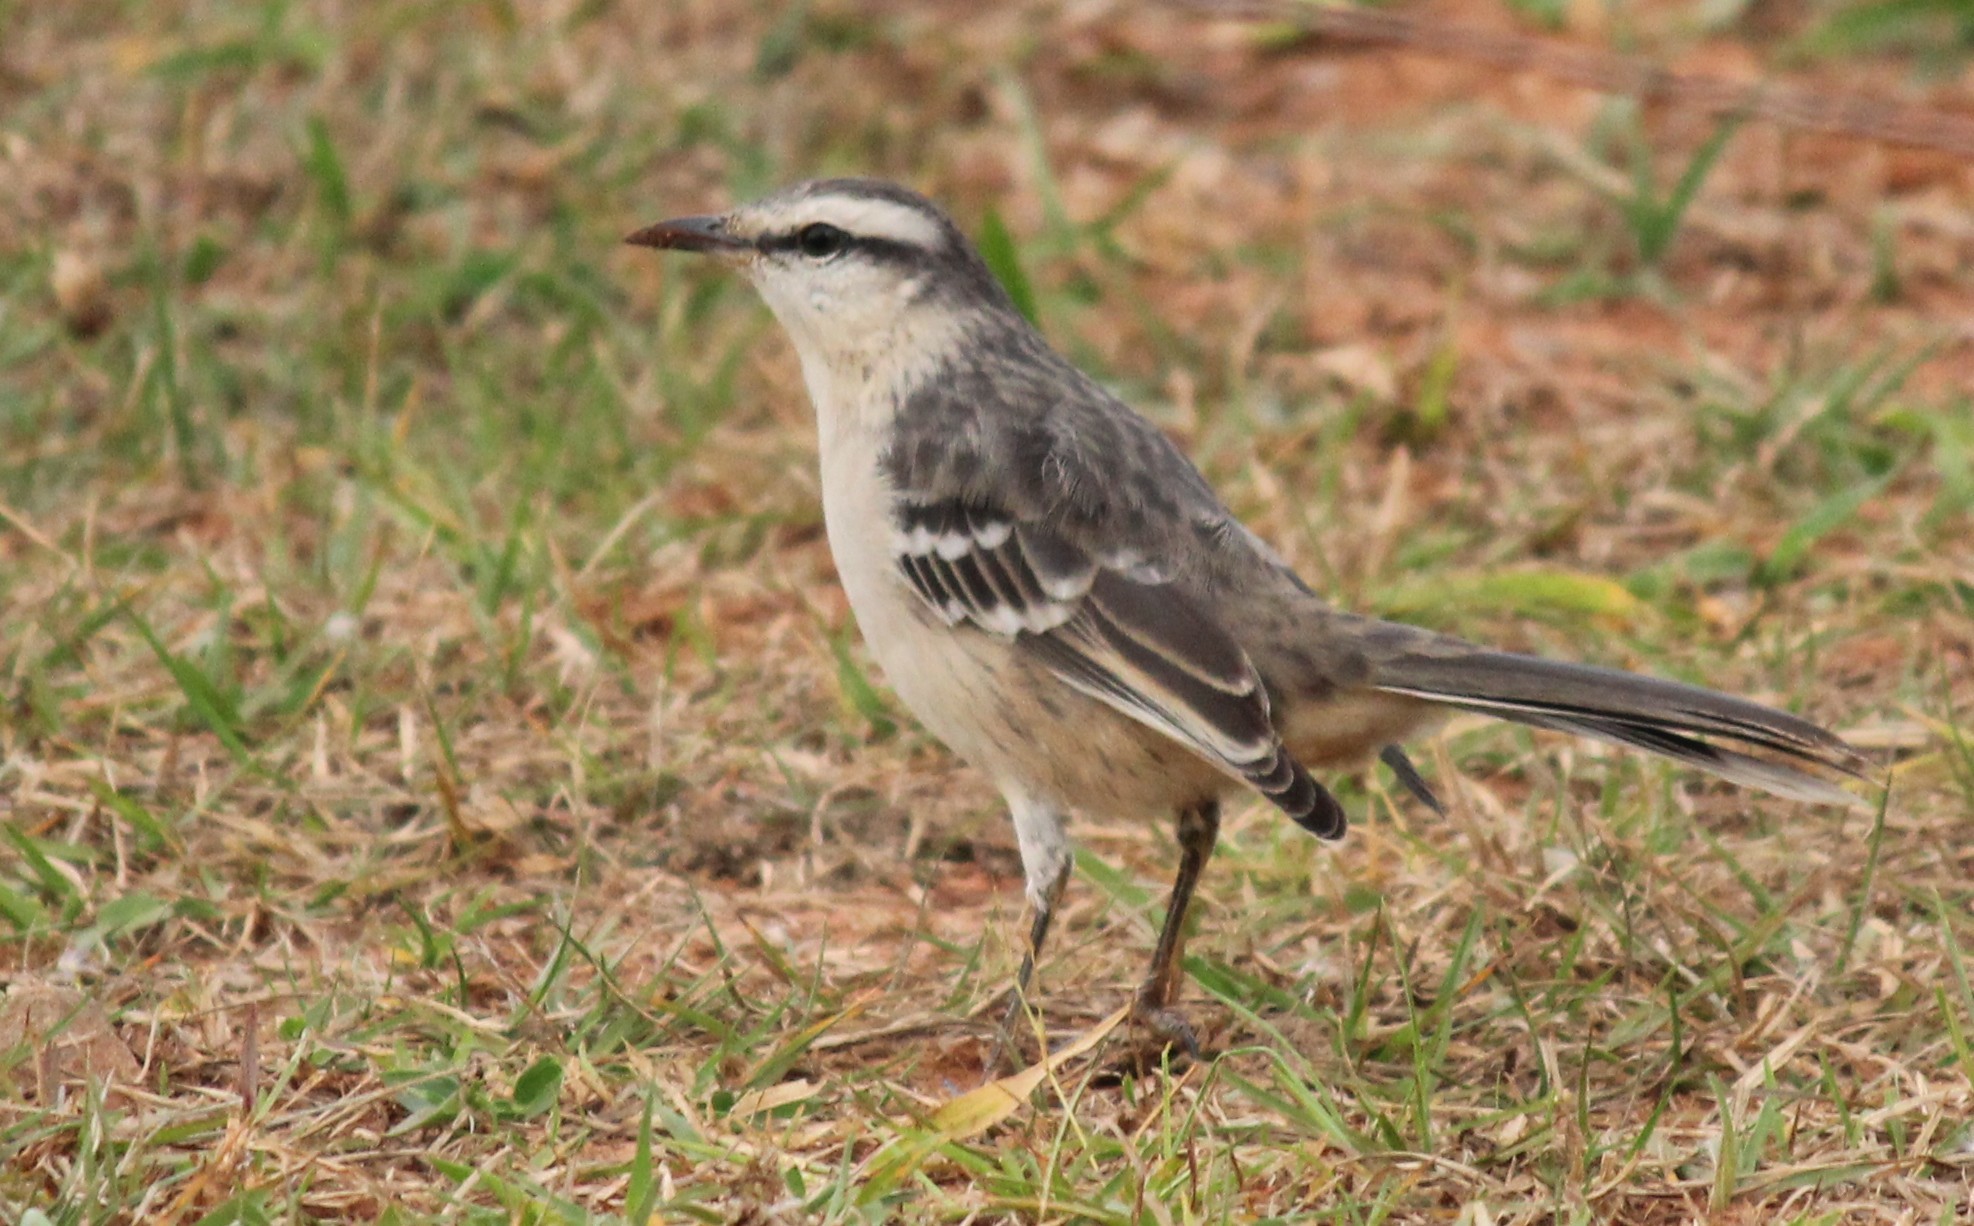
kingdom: Animalia
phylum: Chordata
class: Aves
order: Passeriformes
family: Mimidae
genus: Mimus
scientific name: Mimus saturninus
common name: Chalk-browed mockingbird
